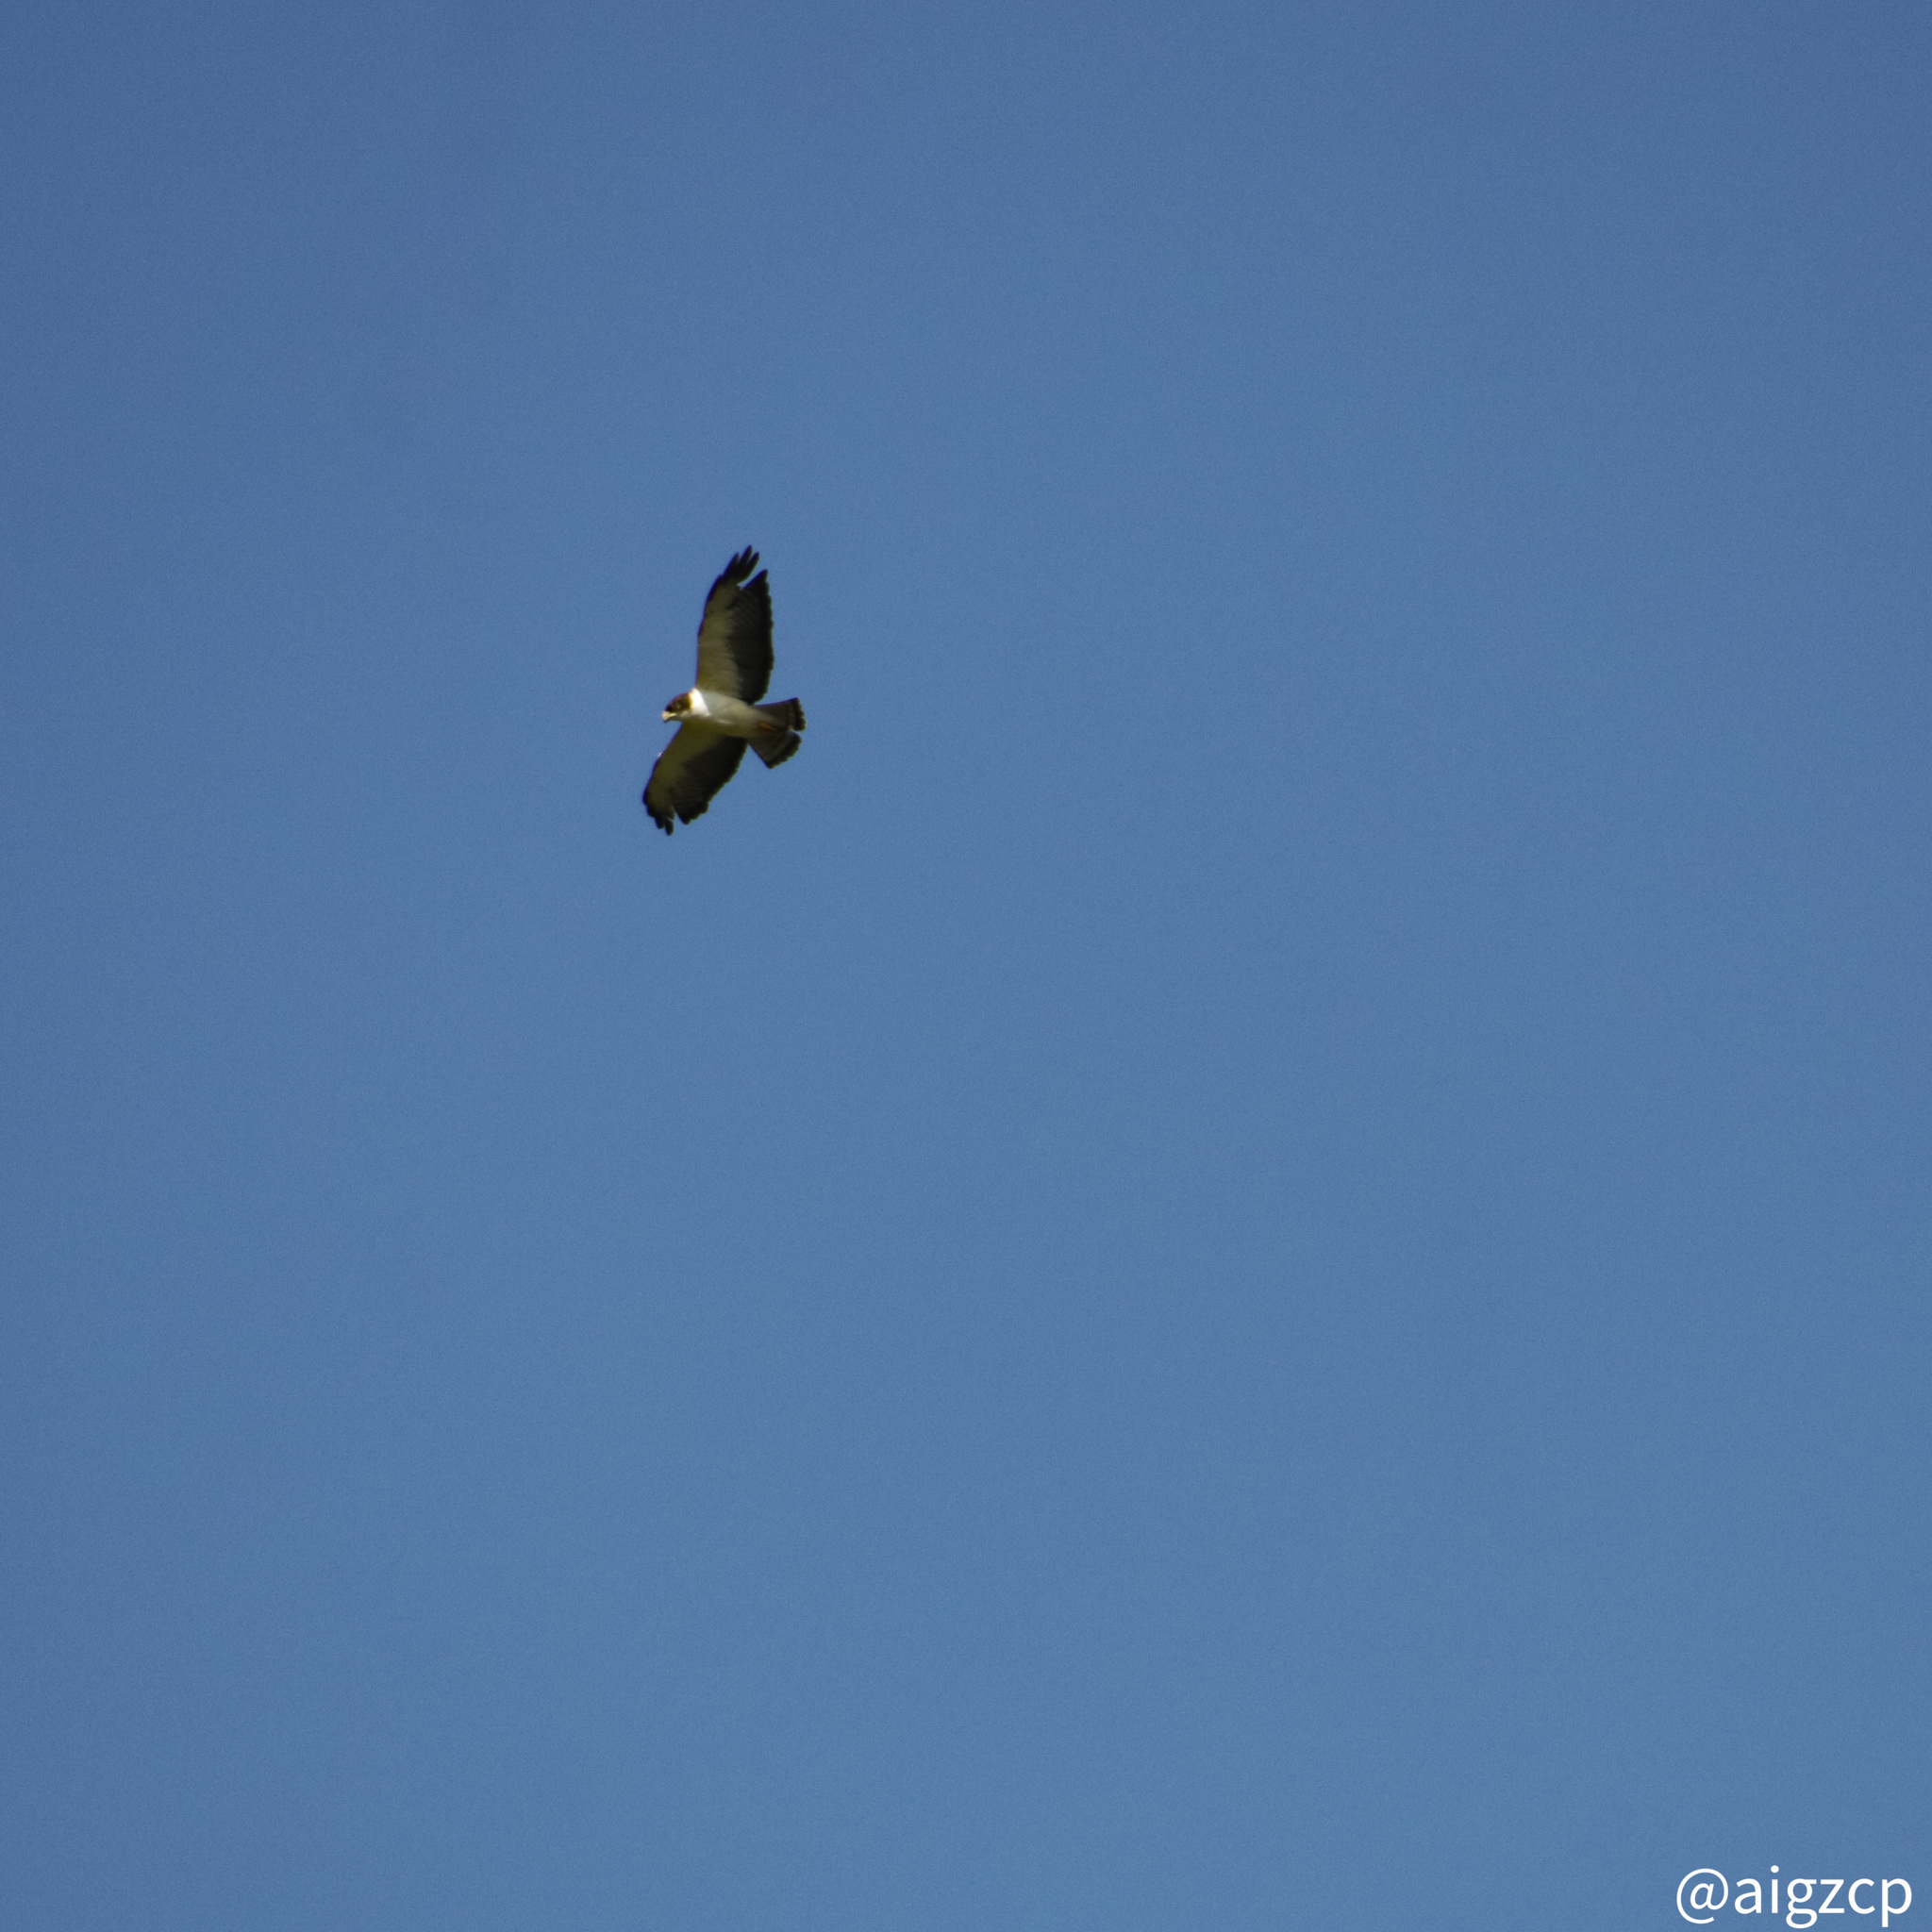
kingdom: Animalia
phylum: Chordata
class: Aves
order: Accipitriformes
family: Accipitridae
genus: Buteo
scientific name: Buteo brachyurus
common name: Short-tailed hawk
